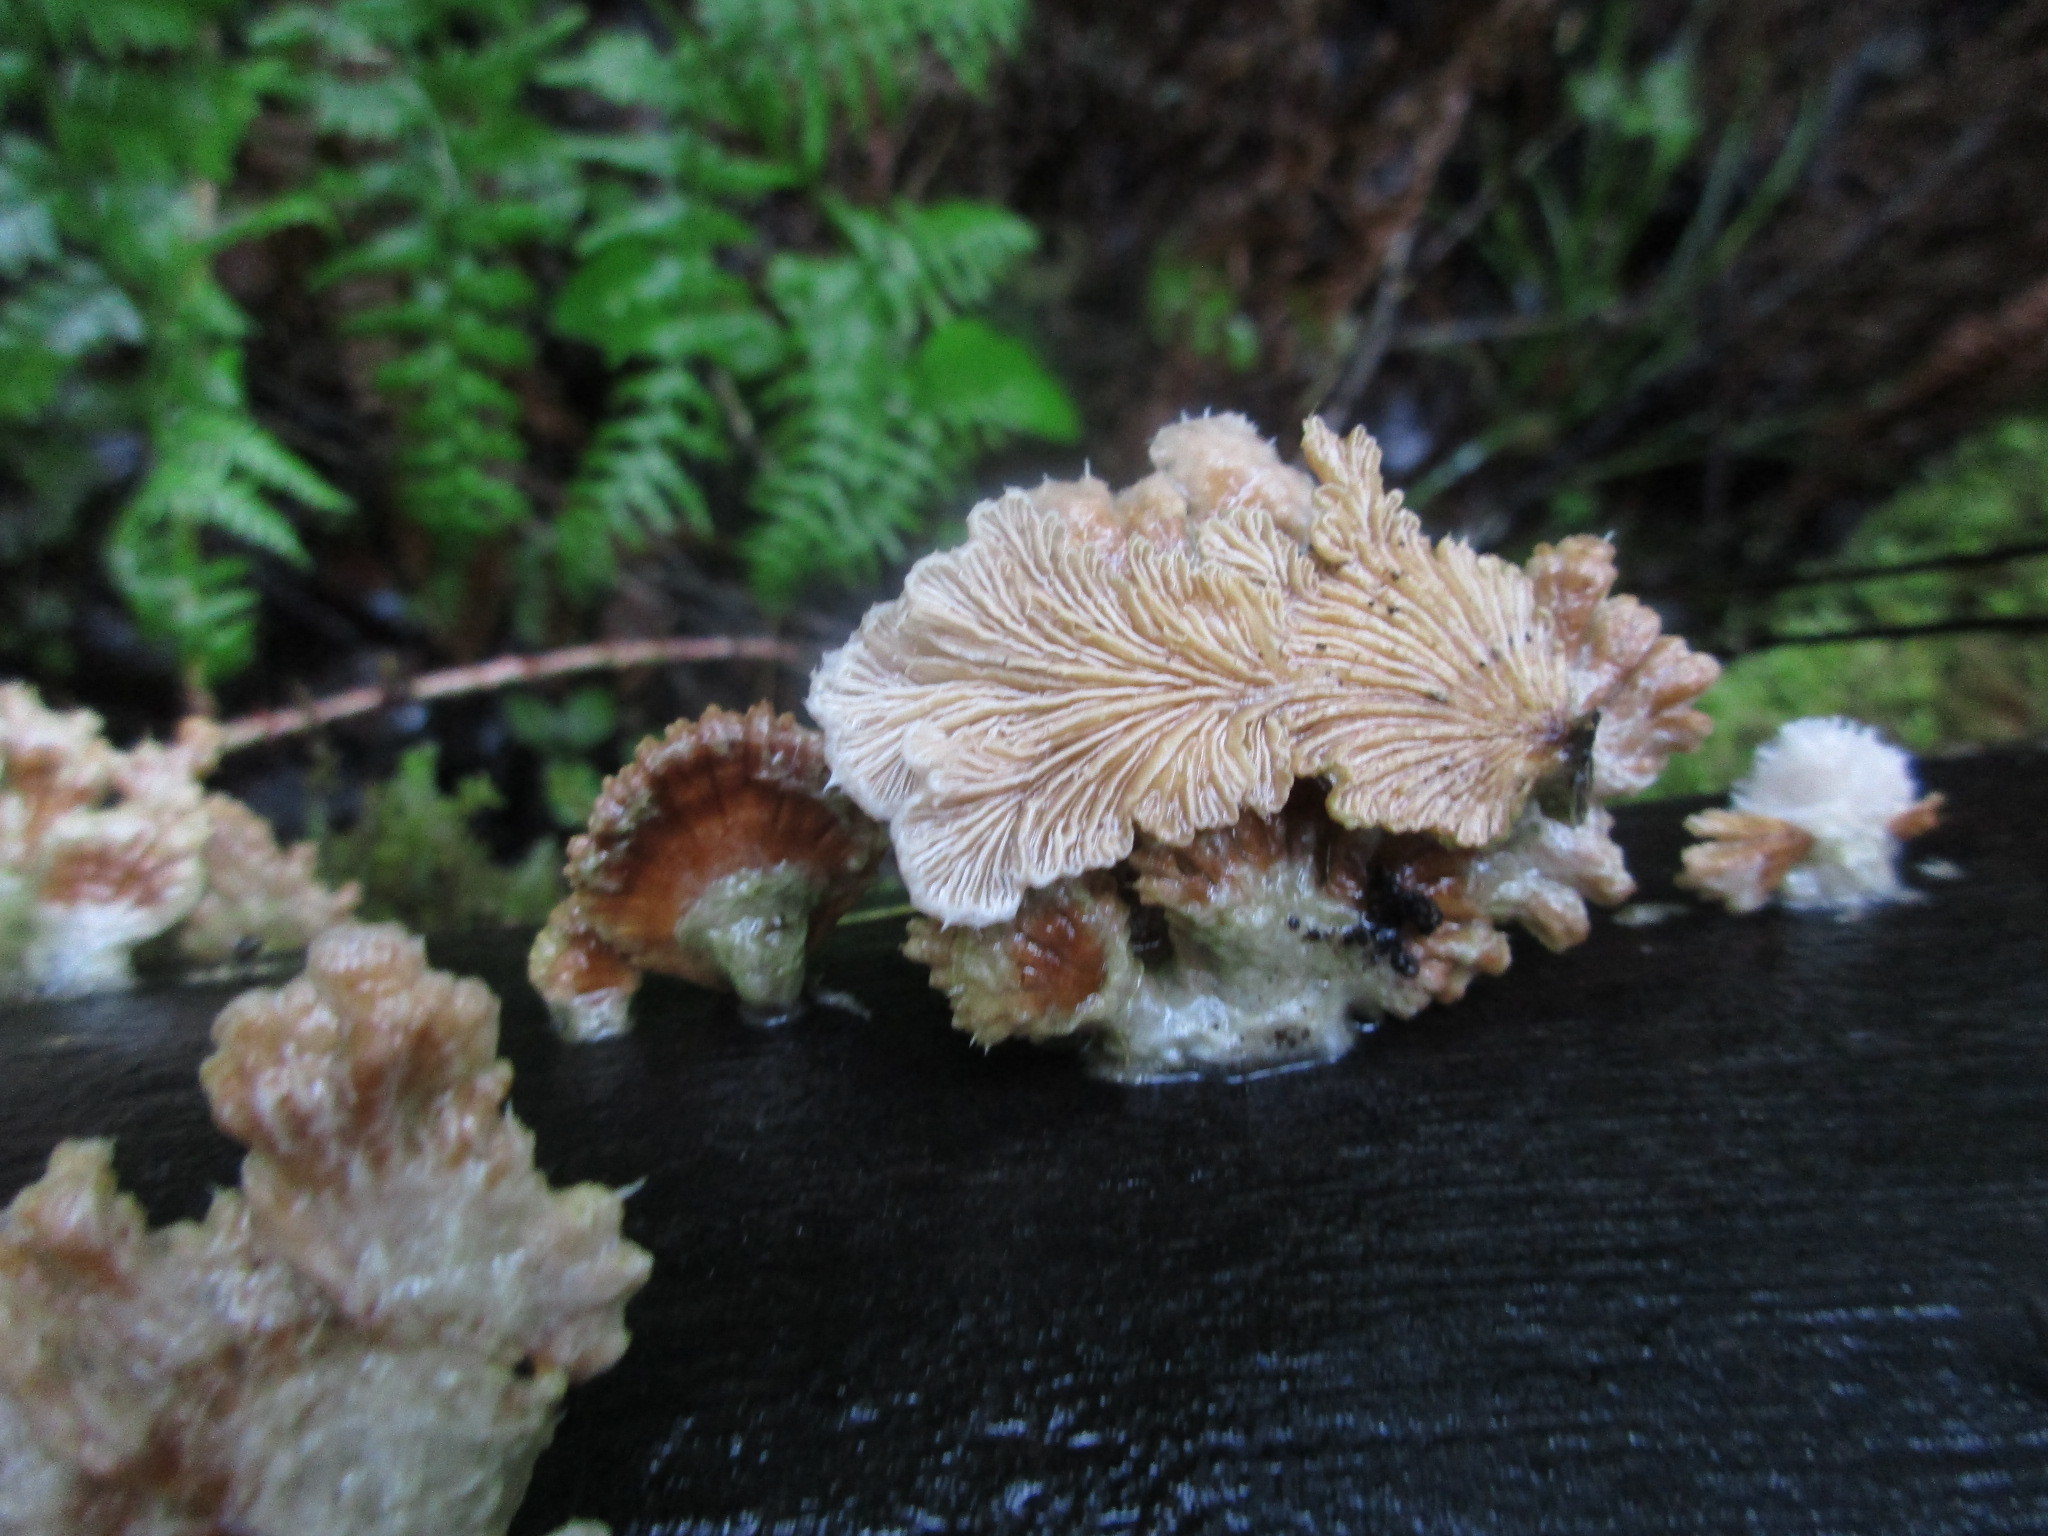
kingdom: Fungi
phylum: Basidiomycota
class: Agaricomycetes
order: Agaricales
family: Schizophyllaceae
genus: Schizophyllum
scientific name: Schizophyllum commune
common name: Common porecrust
